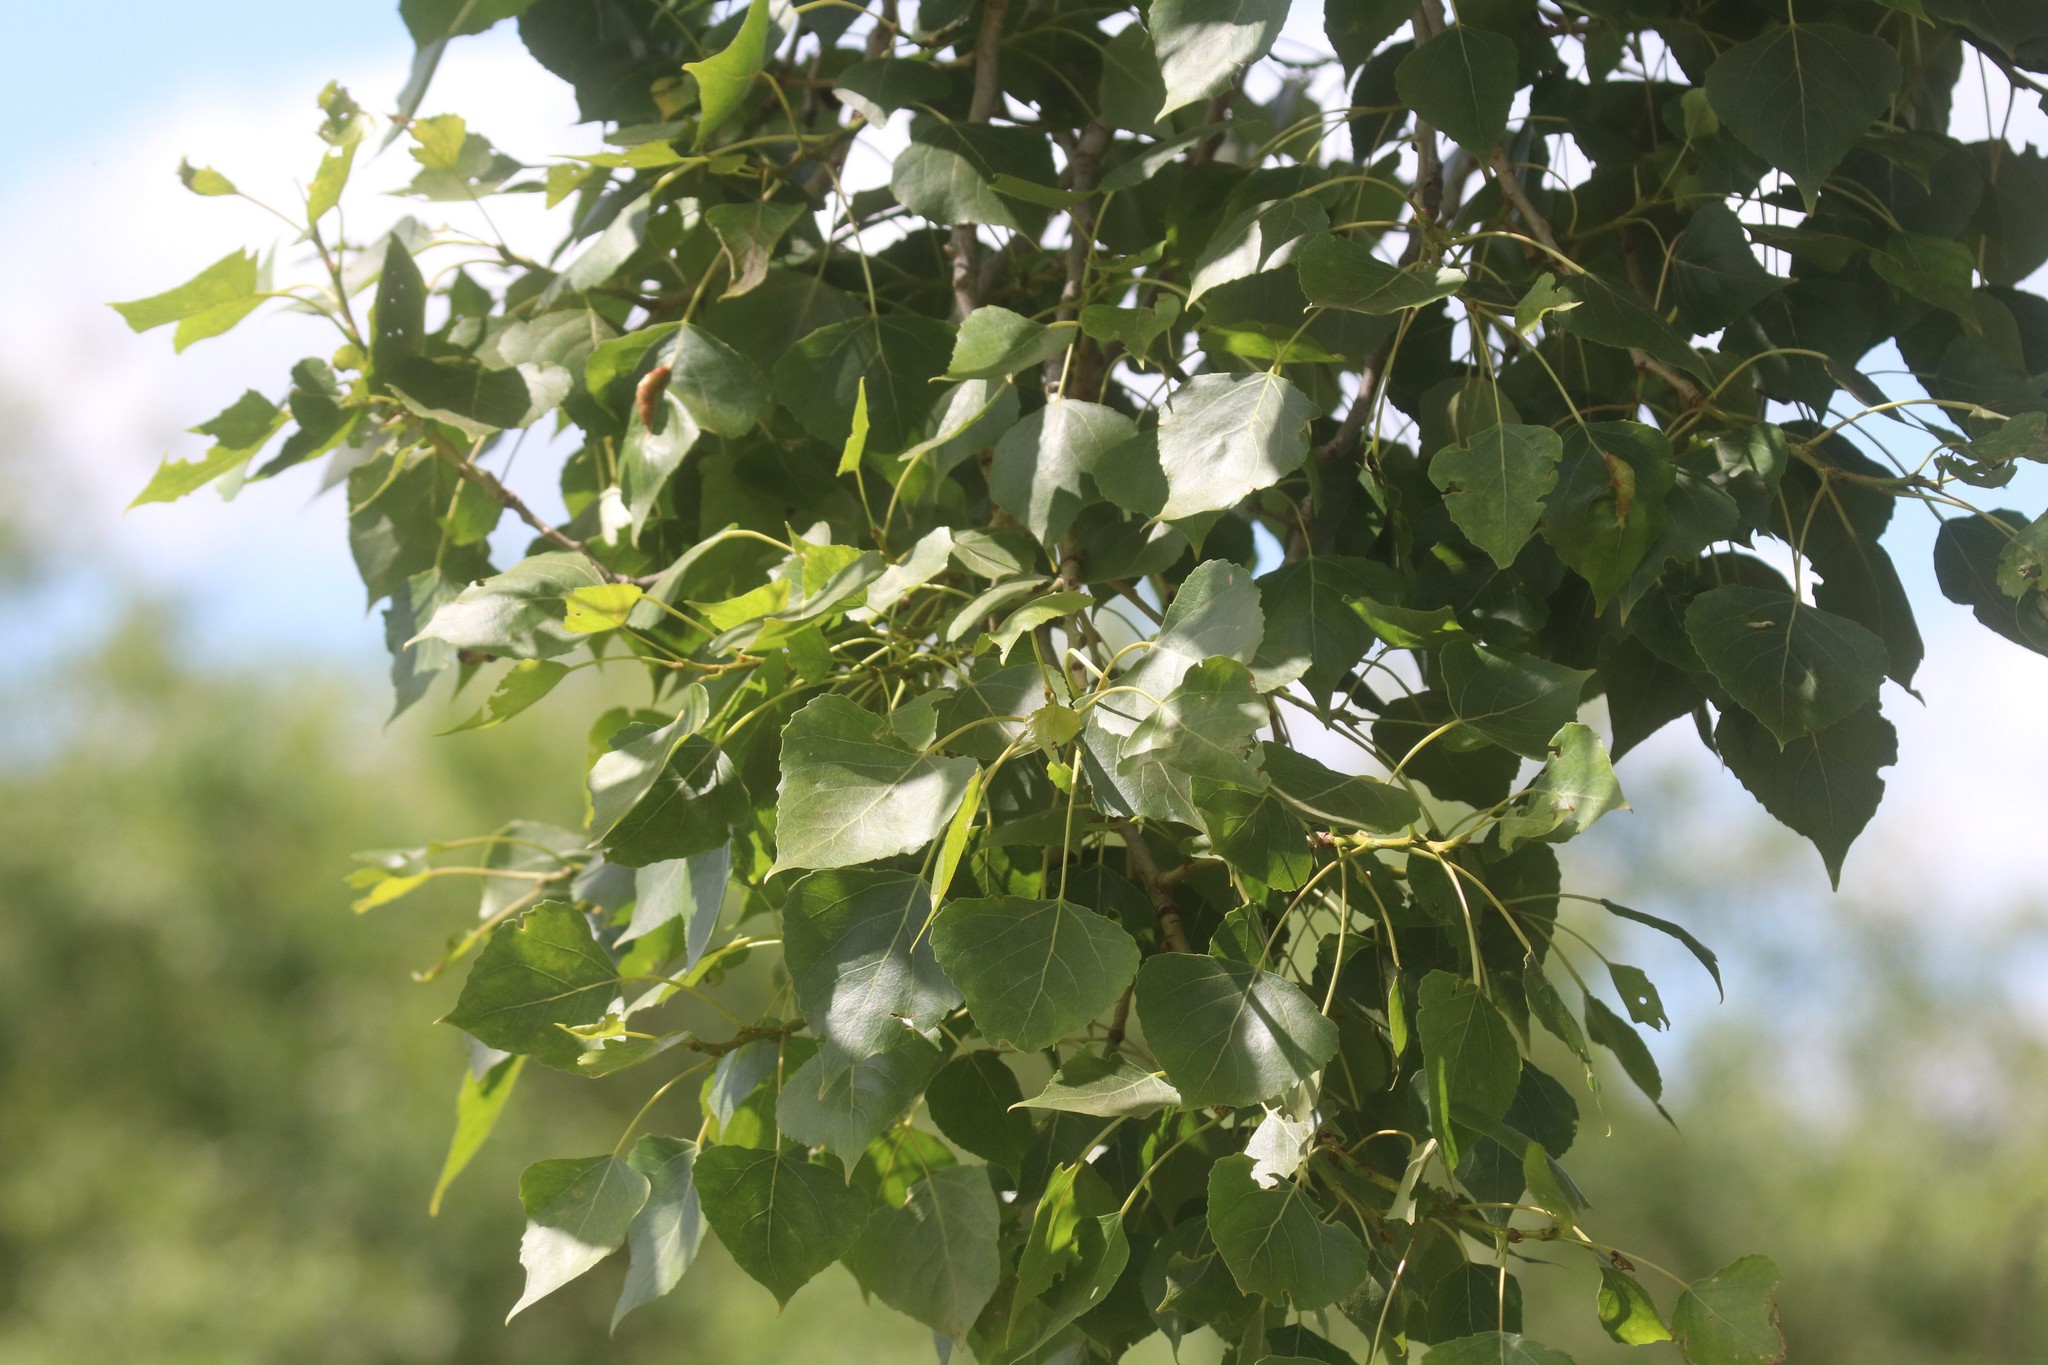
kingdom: Plantae
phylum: Tracheophyta
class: Magnoliopsida
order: Malpighiales
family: Salicaceae
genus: Populus
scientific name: Populus nigra
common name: Black poplar
